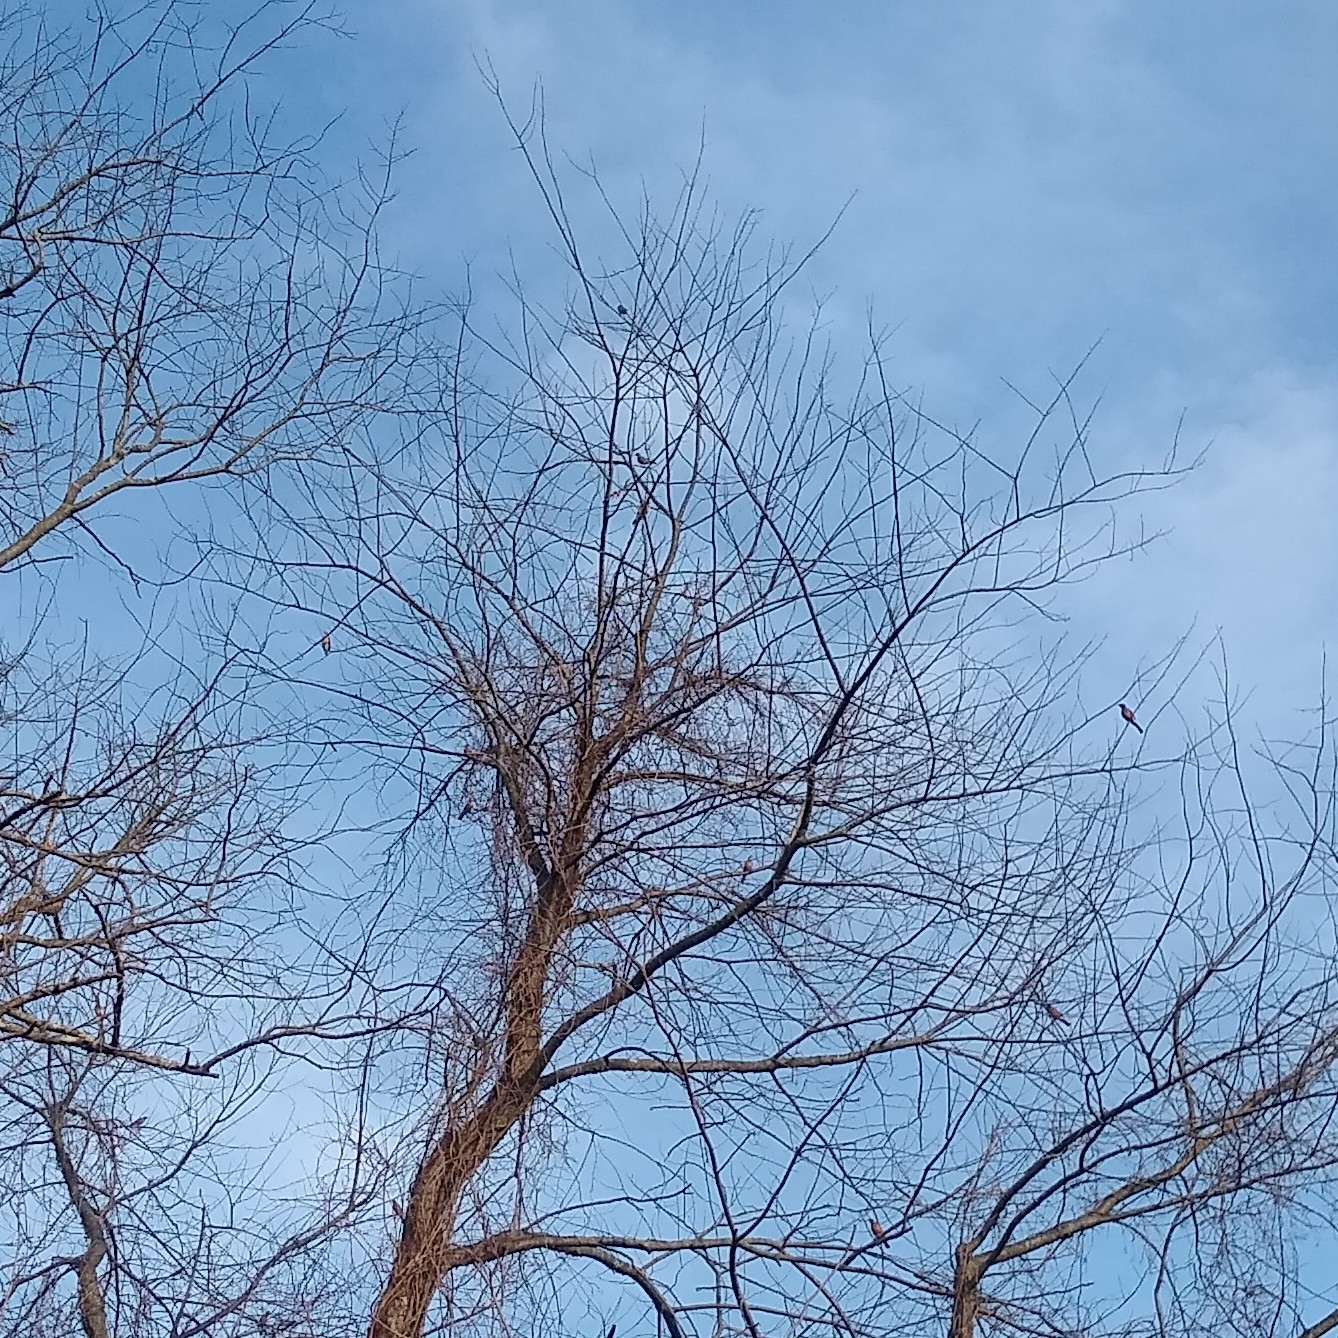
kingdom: Animalia
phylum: Chordata
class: Aves
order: Passeriformes
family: Turdidae
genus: Turdus
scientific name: Turdus migratorius
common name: American robin
